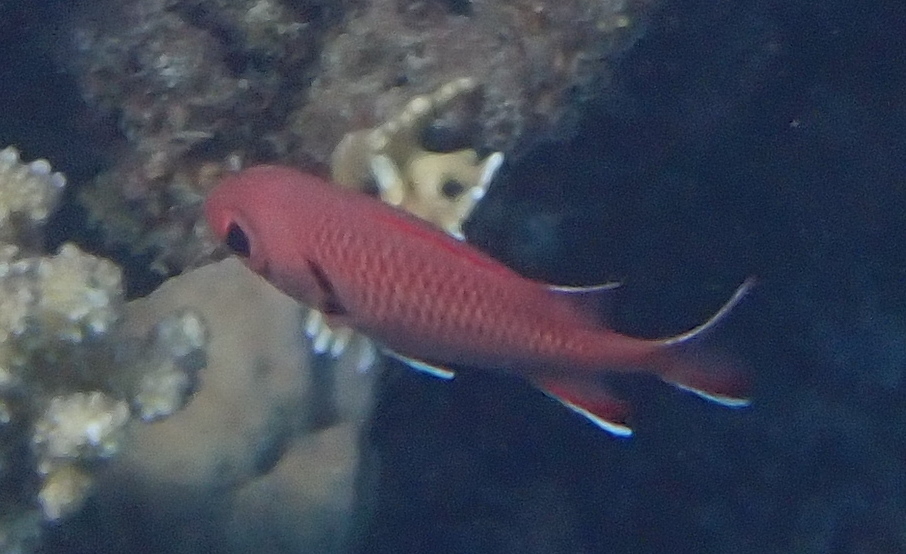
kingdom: Animalia
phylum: Chordata
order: Beryciformes
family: Holocentridae
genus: Myripristis
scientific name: Myripristis murdjan
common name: Big-eye soldierfish
